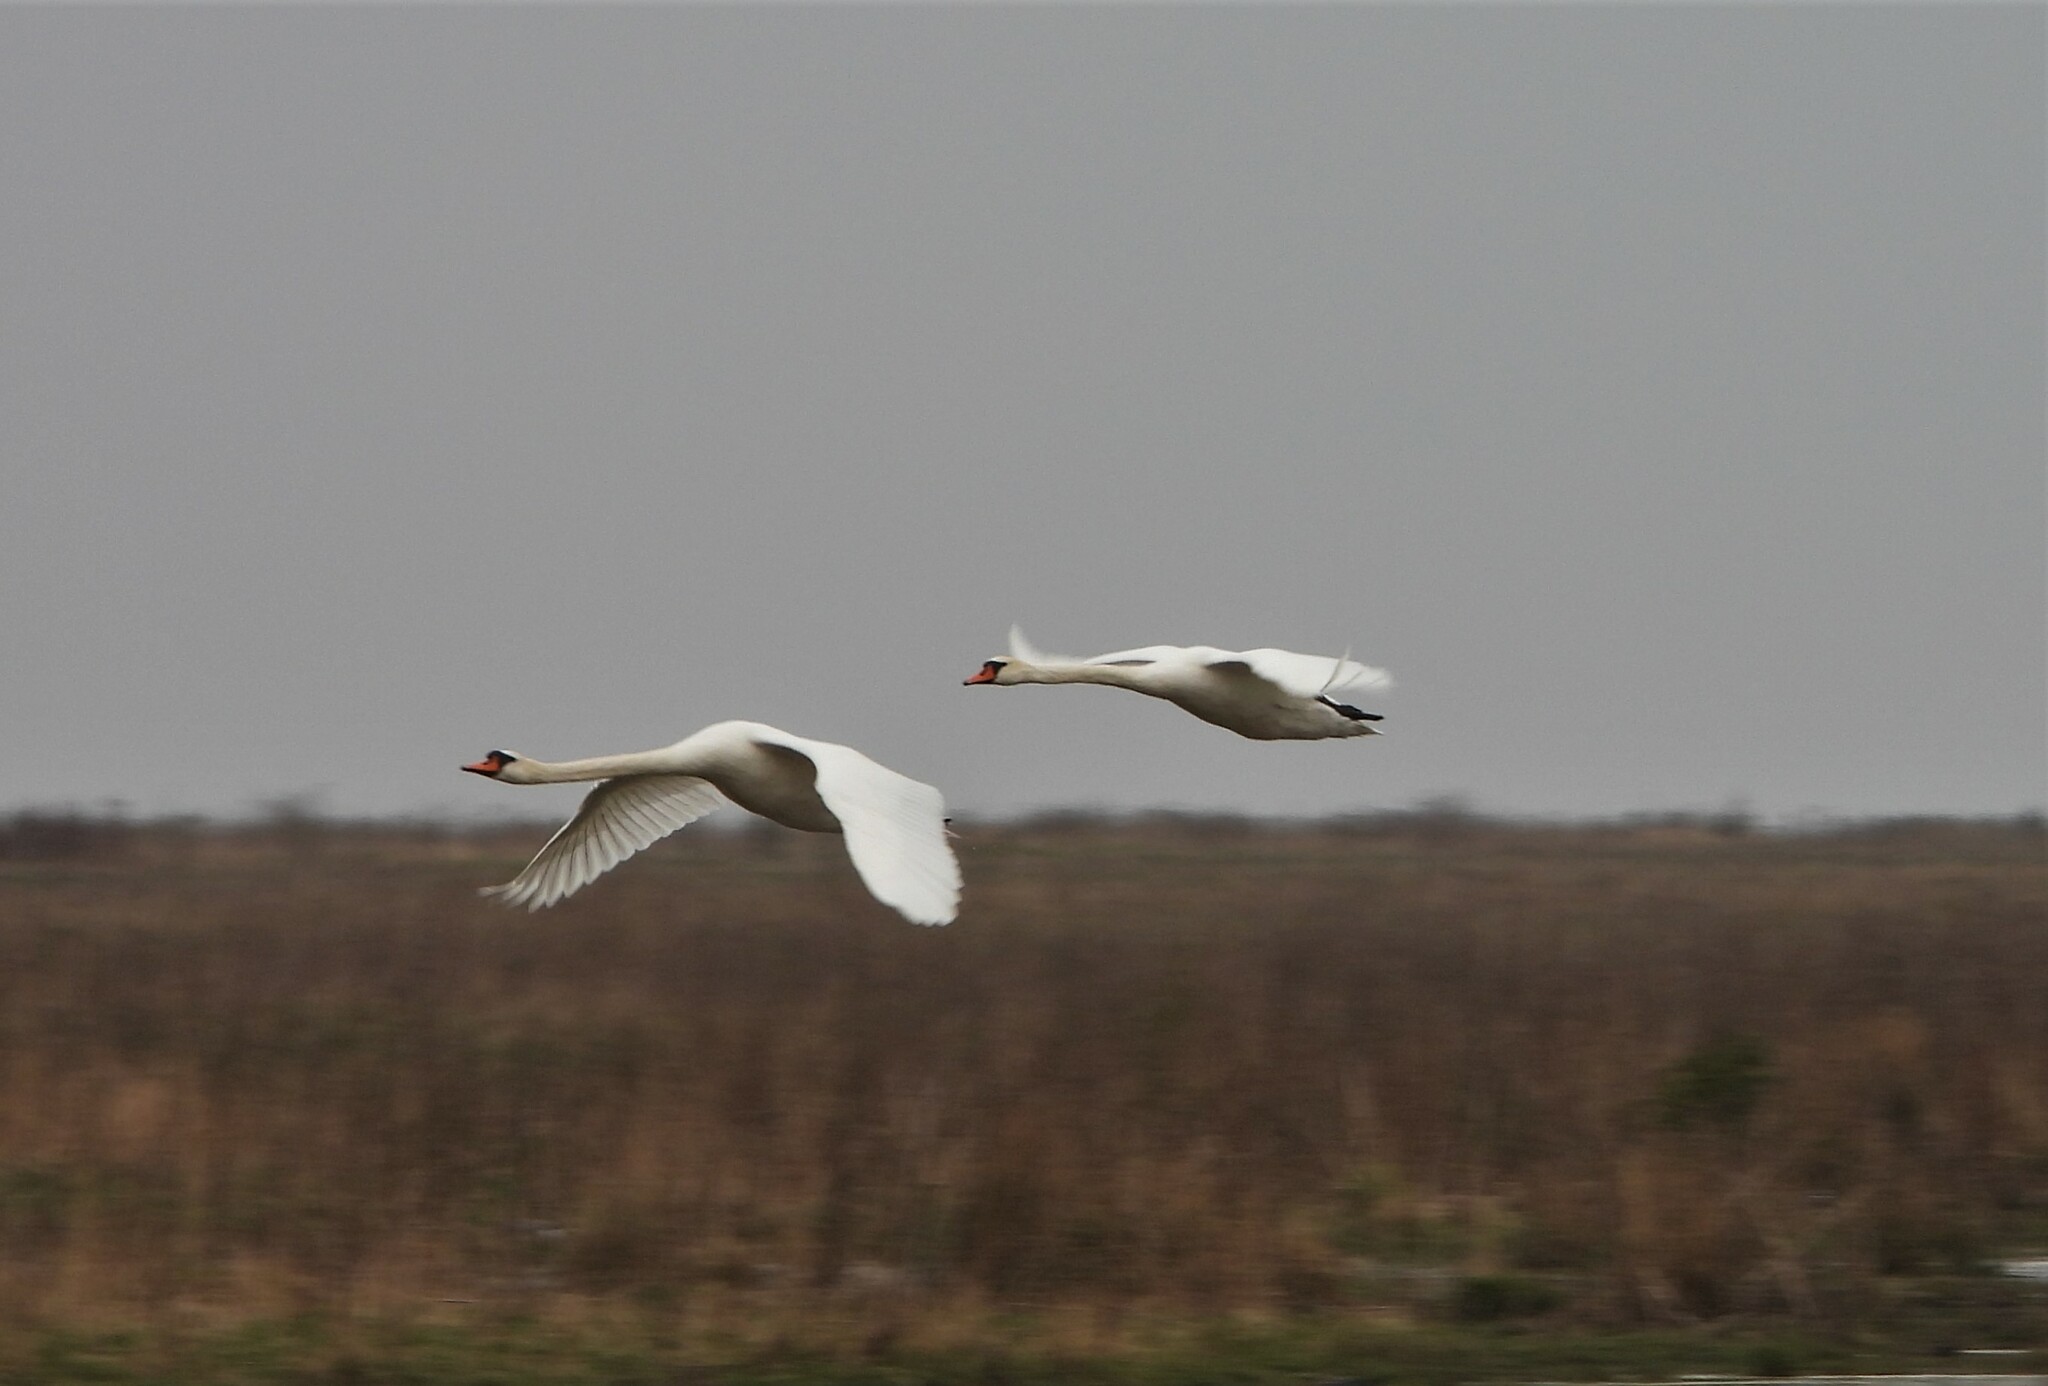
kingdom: Animalia
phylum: Chordata
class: Aves
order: Anseriformes
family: Anatidae
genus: Cygnus
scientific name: Cygnus olor
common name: Mute swan
